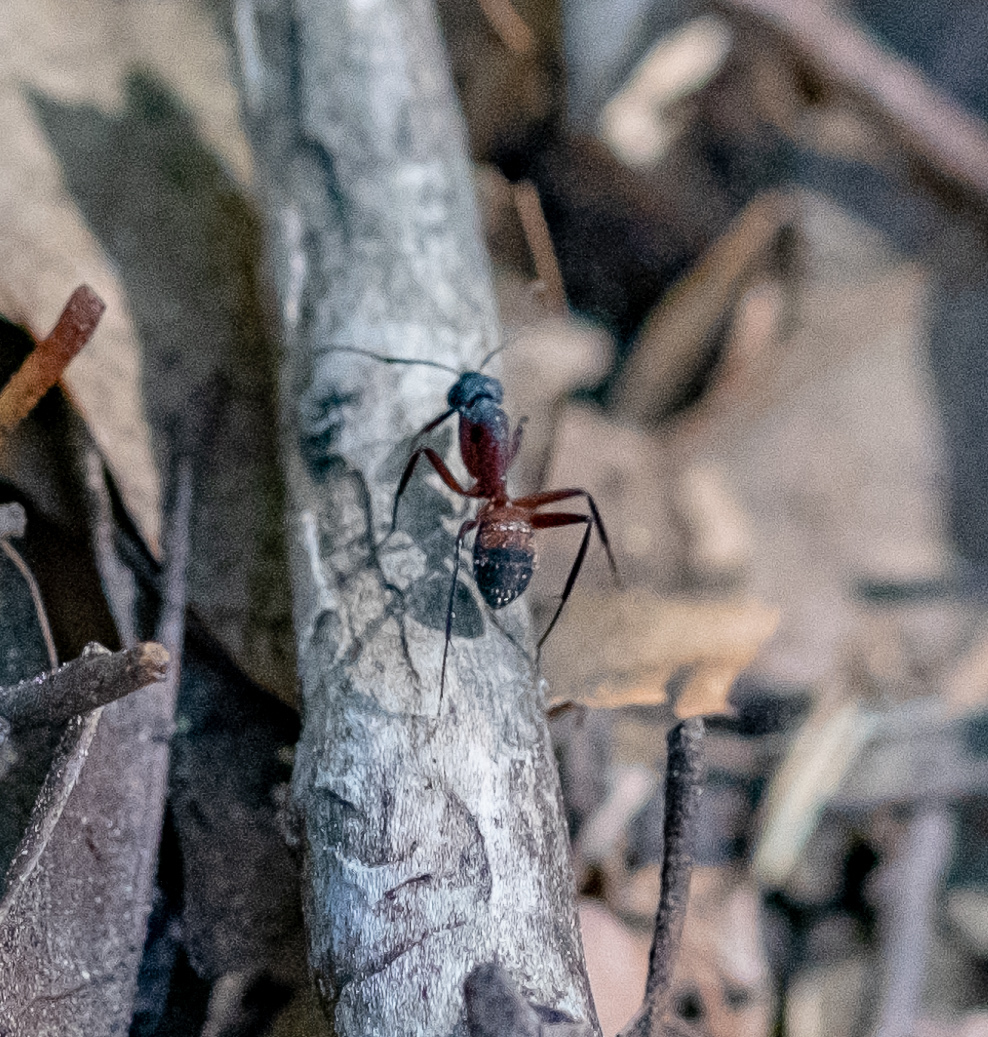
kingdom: Animalia
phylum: Arthropoda
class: Insecta
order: Hymenoptera
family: Formicidae
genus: Camponotus
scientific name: Camponotus cruentatus
